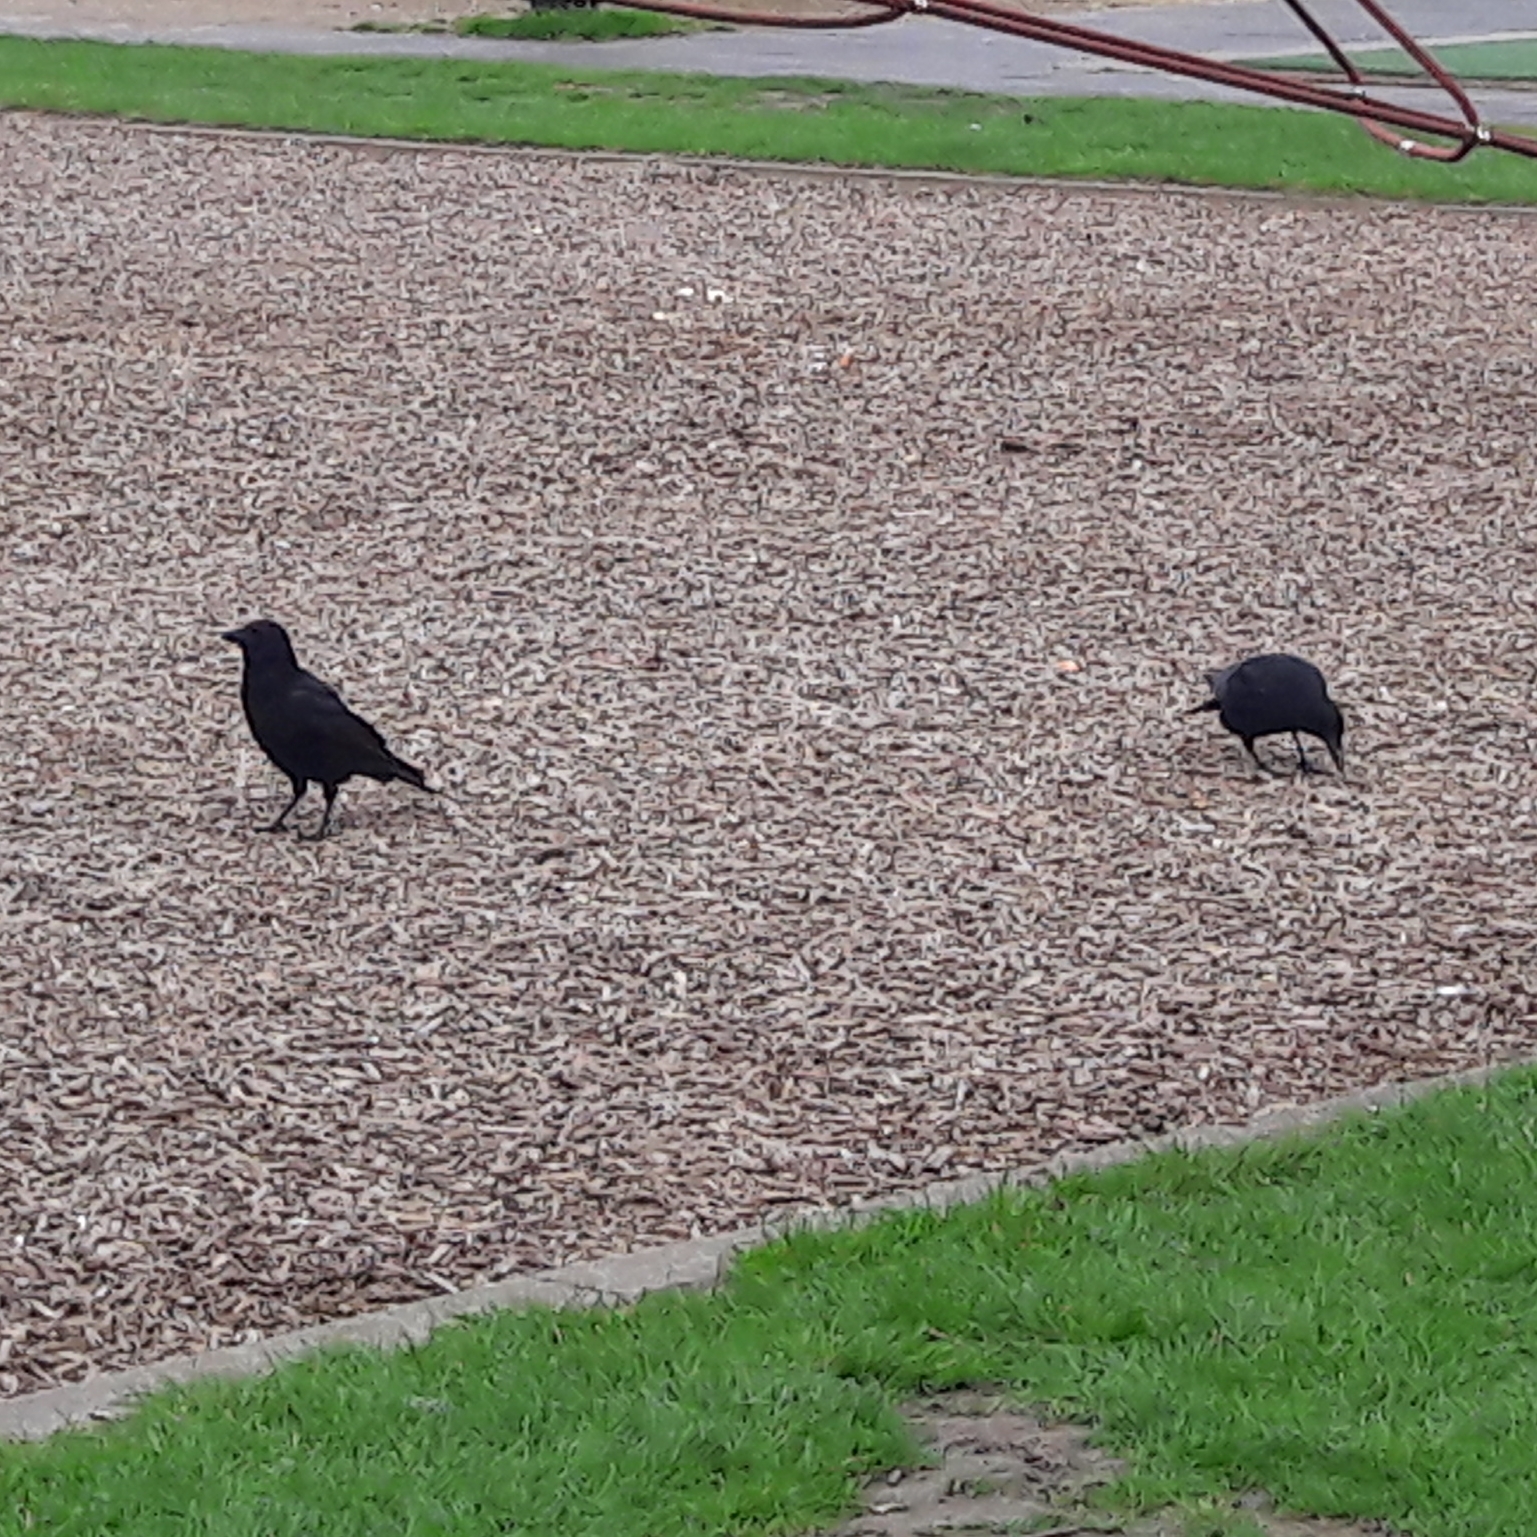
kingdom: Animalia
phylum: Chordata
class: Aves
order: Passeriformes
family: Corvidae
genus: Corvus
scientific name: Corvus corone
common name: Carrion crow
